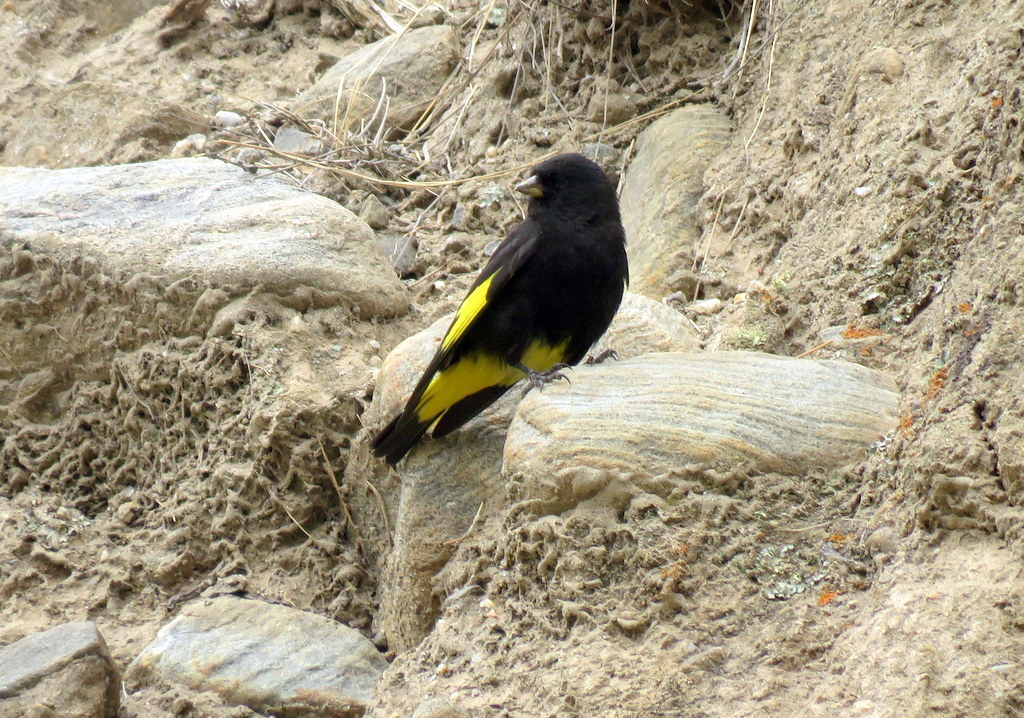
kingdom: Animalia
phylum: Chordata
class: Aves
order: Passeriformes
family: Fringillidae
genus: Spinus
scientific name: Spinus atratus
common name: Black siskin
